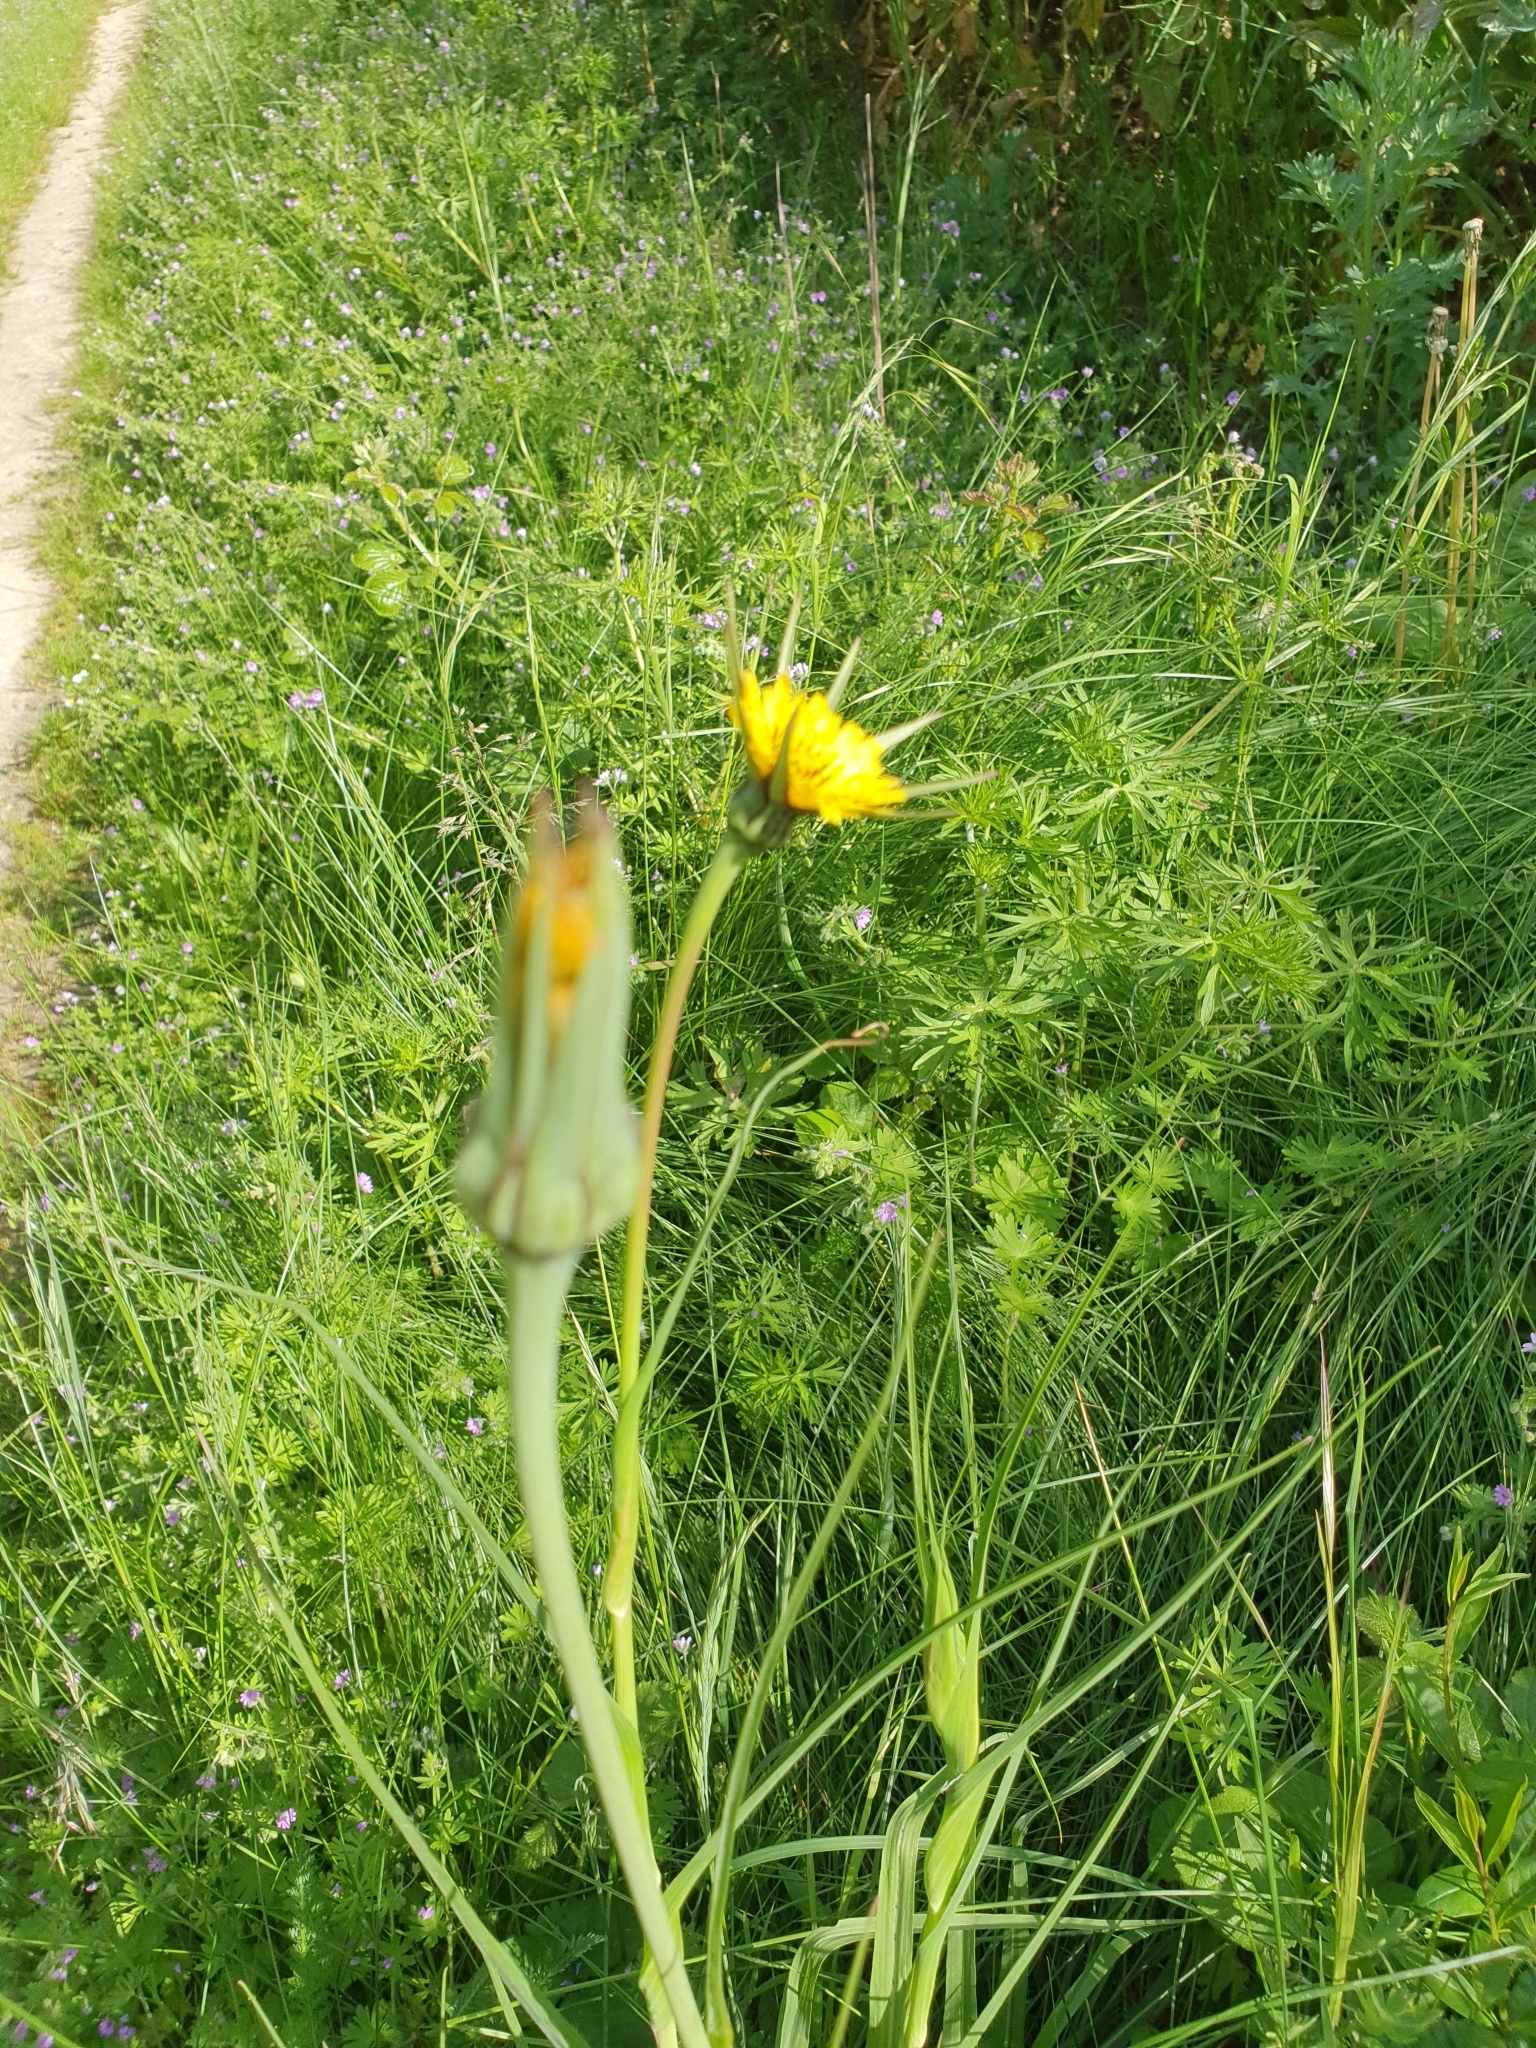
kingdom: Plantae
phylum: Tracheophyta
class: Magnoliopsida
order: Asterales
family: Asteraceae
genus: Tragopogon
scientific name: Tragopogon pratensis
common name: Goat's-beard
